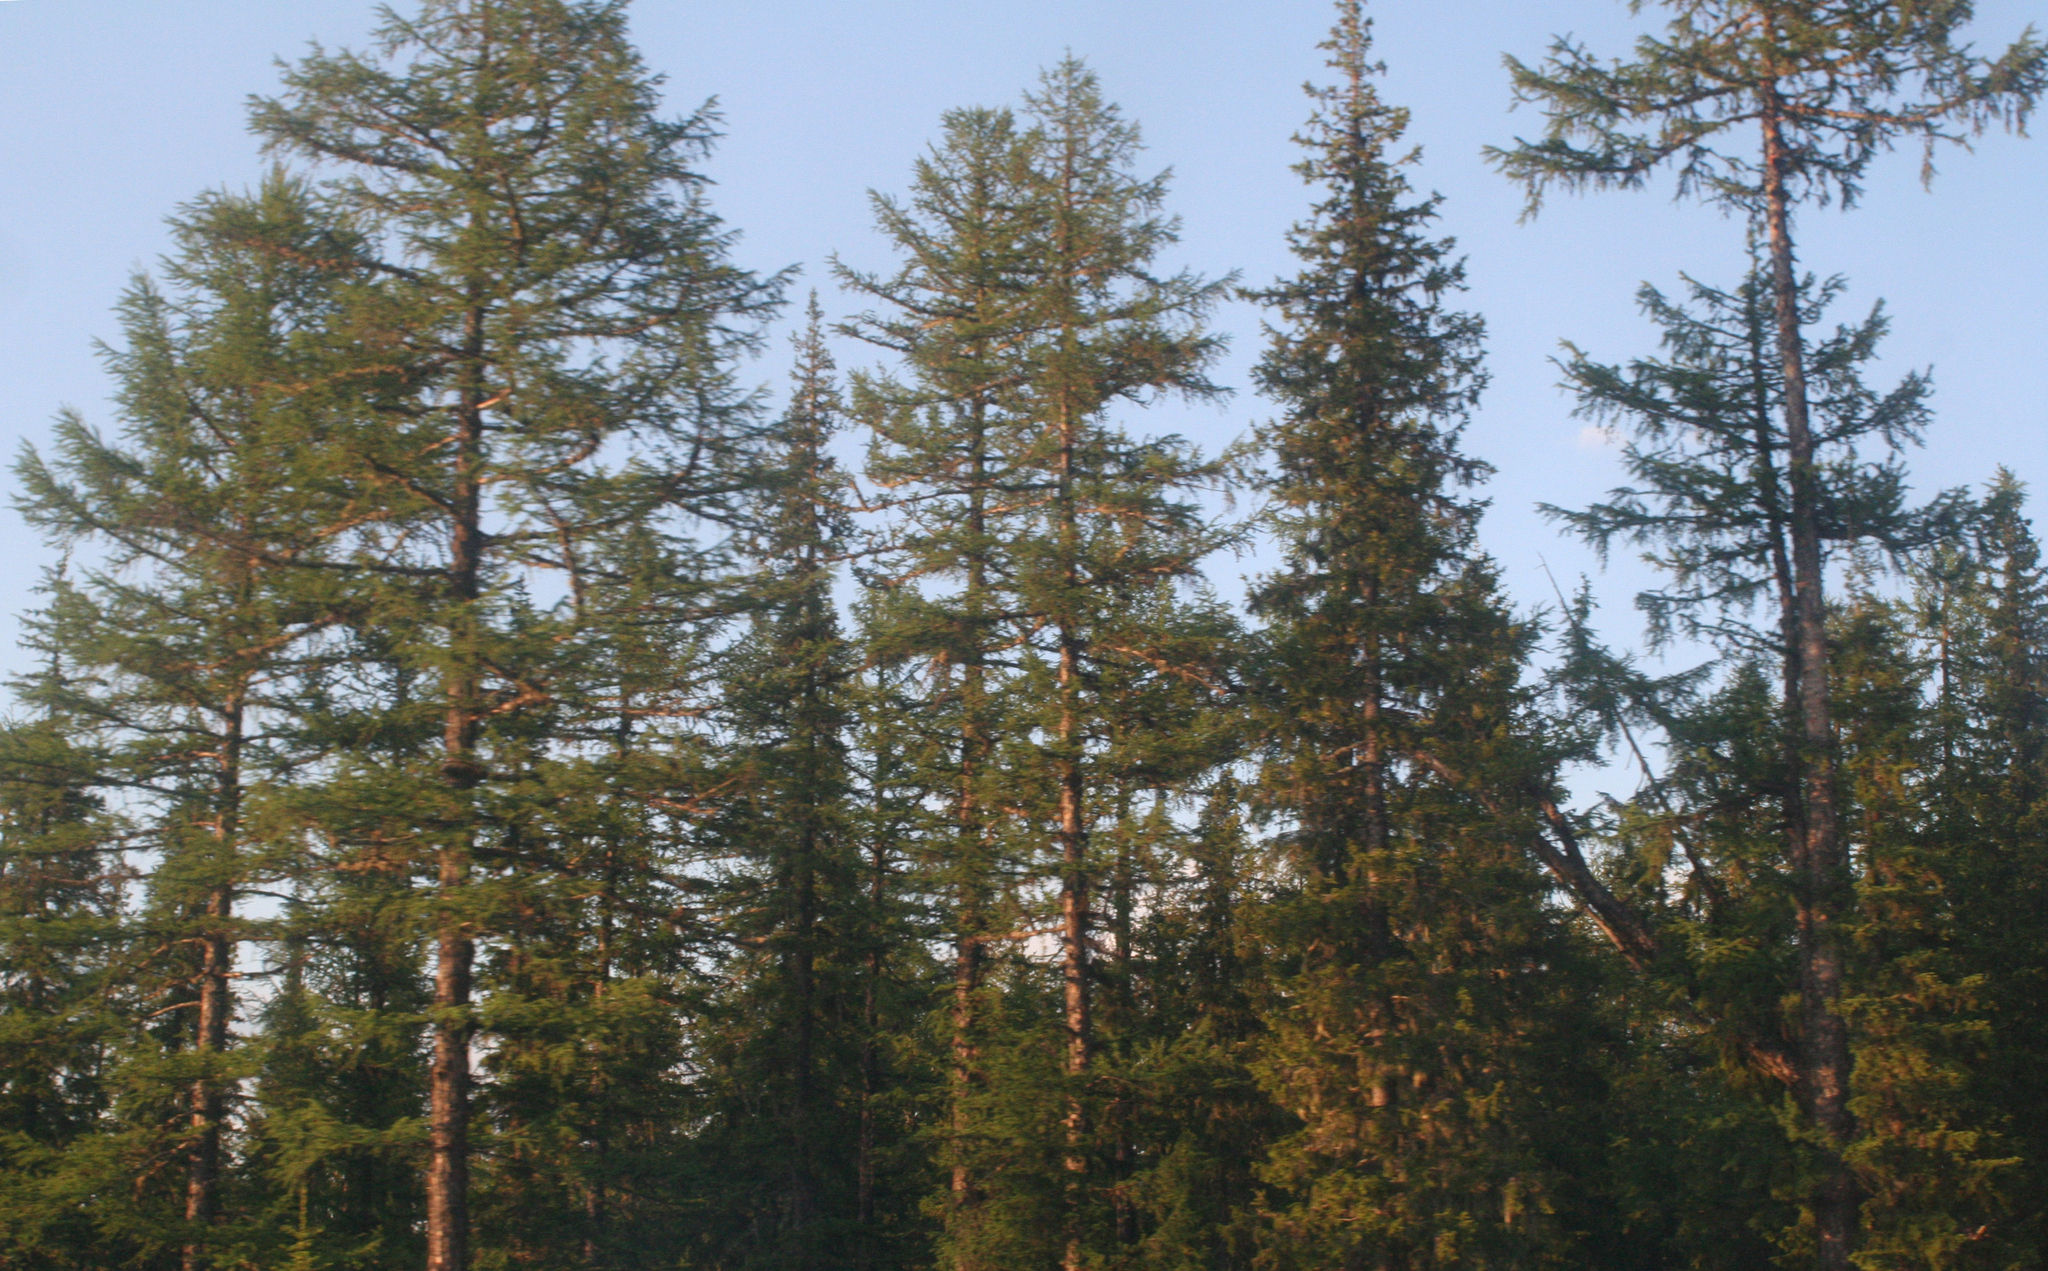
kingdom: Plantae
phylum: Tracheophyta
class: Pinopsida
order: Pinales
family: Pinaceae
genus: Larix
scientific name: Larix gmelinii
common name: Dahurian larch
